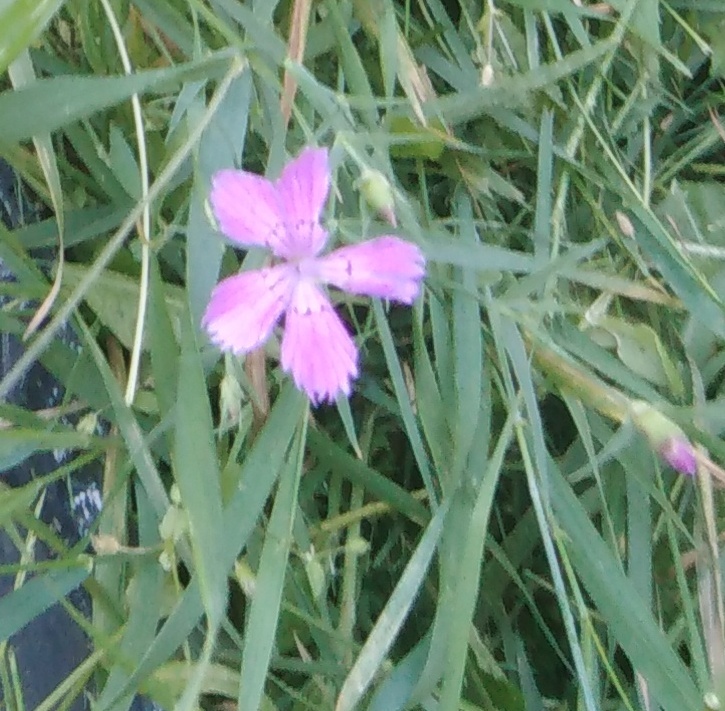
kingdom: Plantae
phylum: Tracheophyta
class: Magnoliopsida
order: Caryophyllales
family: Caryophyllaceae
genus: Dianthus
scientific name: Dianthus chinensis
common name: Rainbow pink
